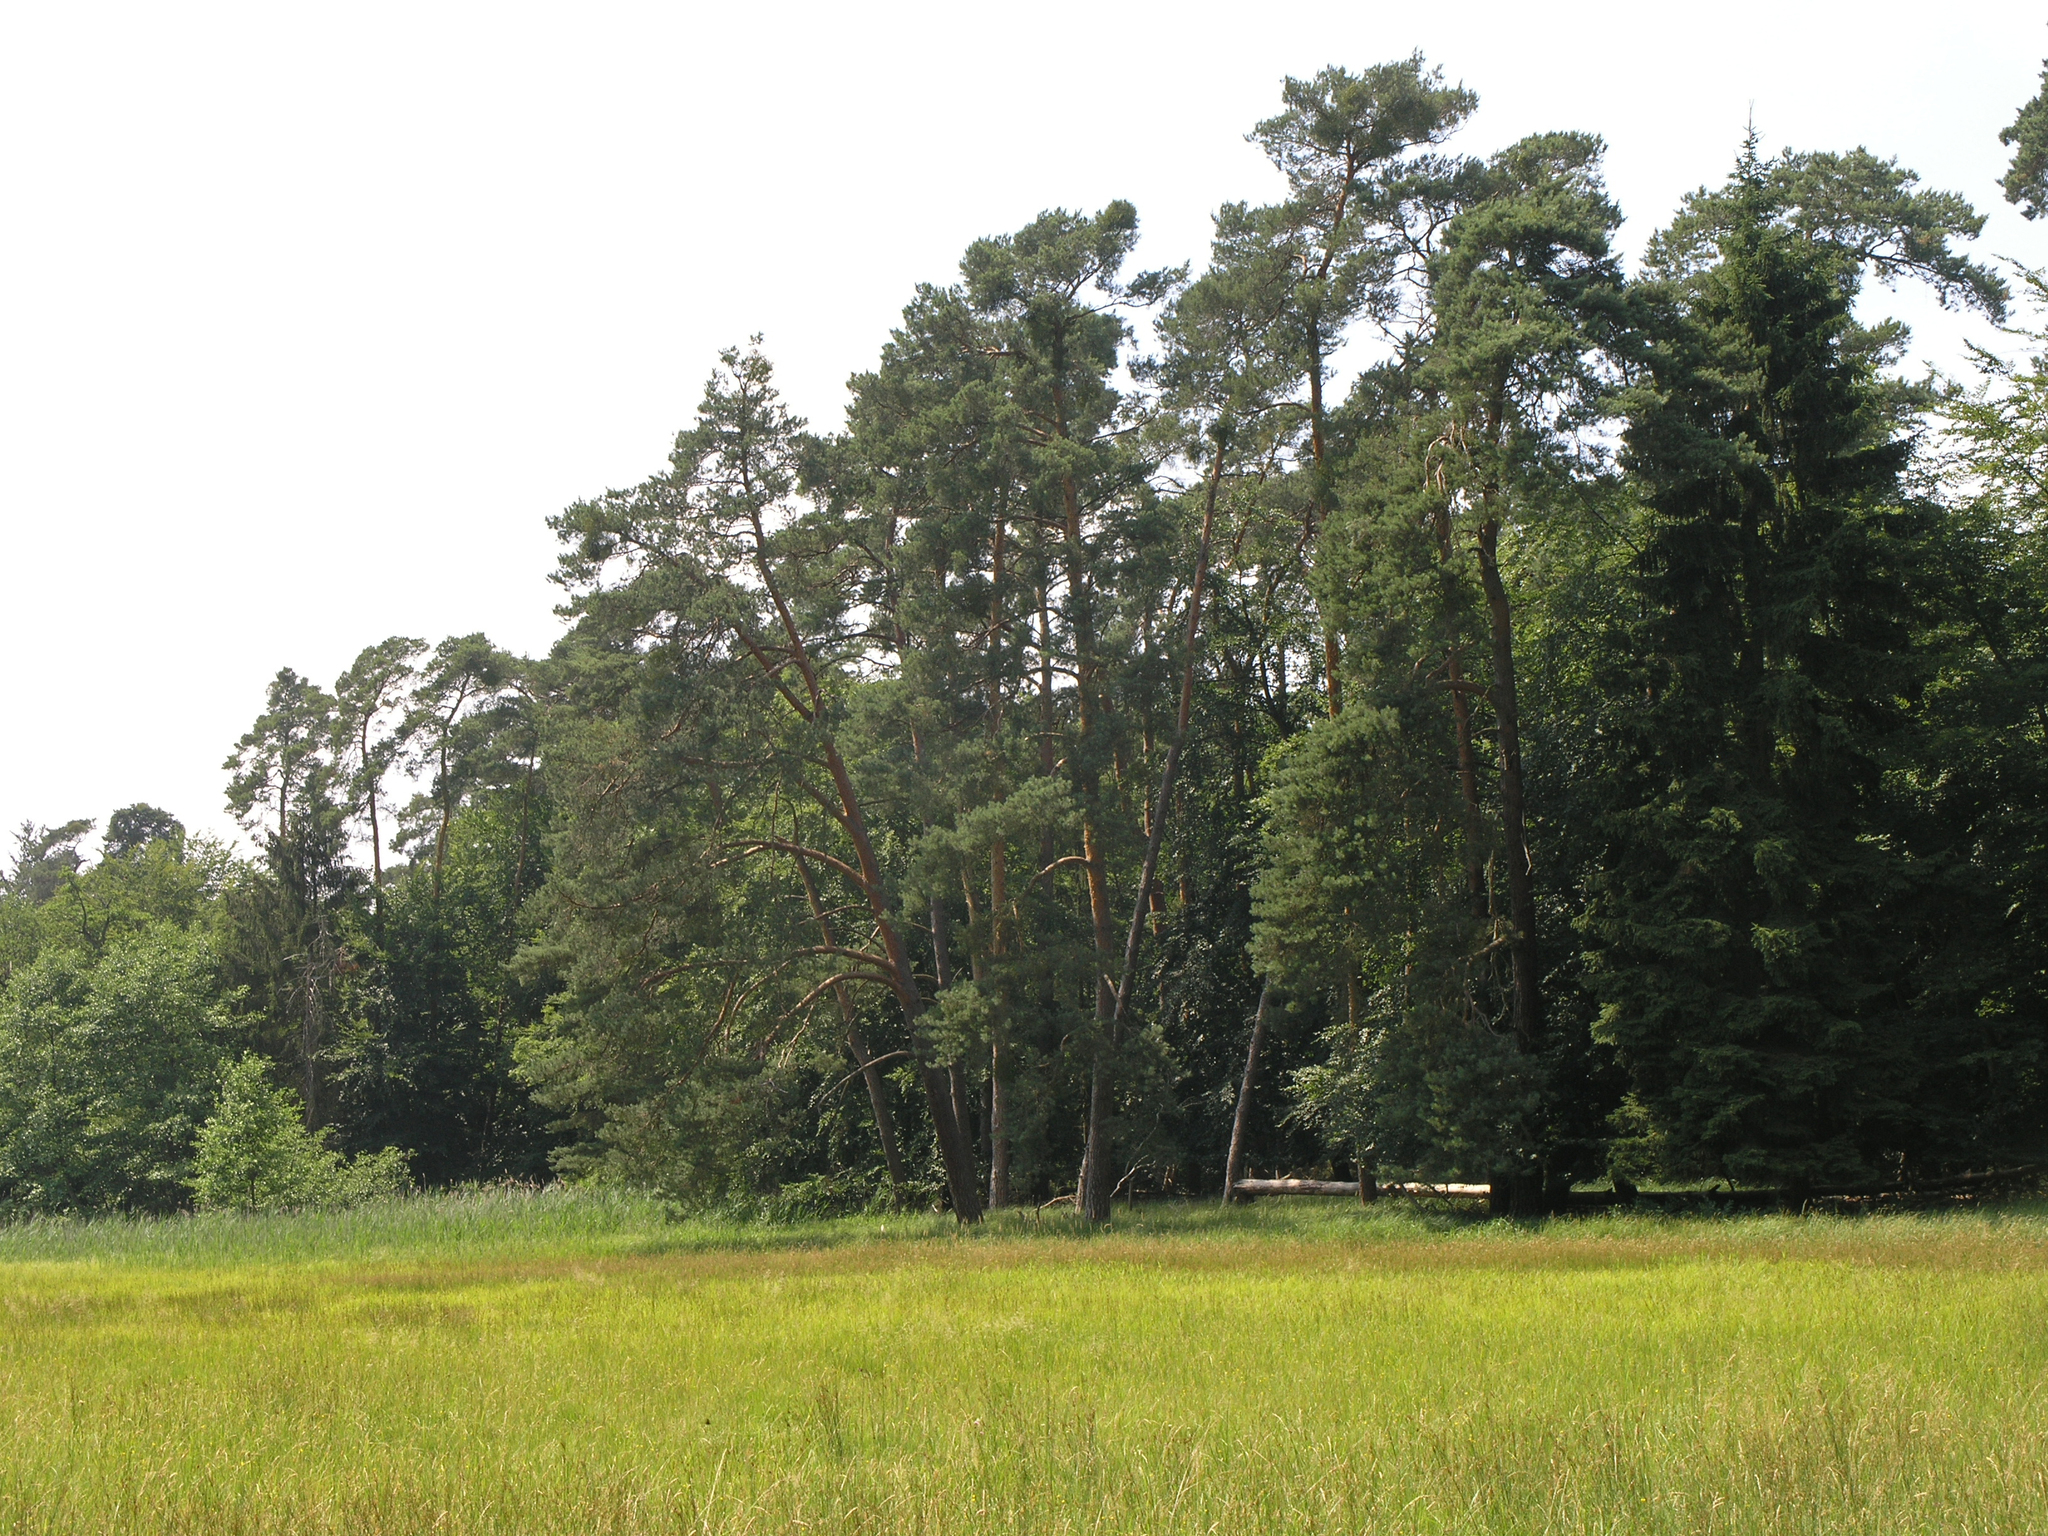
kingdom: Plantae
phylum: Tracheophyta
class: Pinopsida
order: Pinales
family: Pinaceae
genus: Pinus
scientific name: Pinus sylvestris
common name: Scots pine
